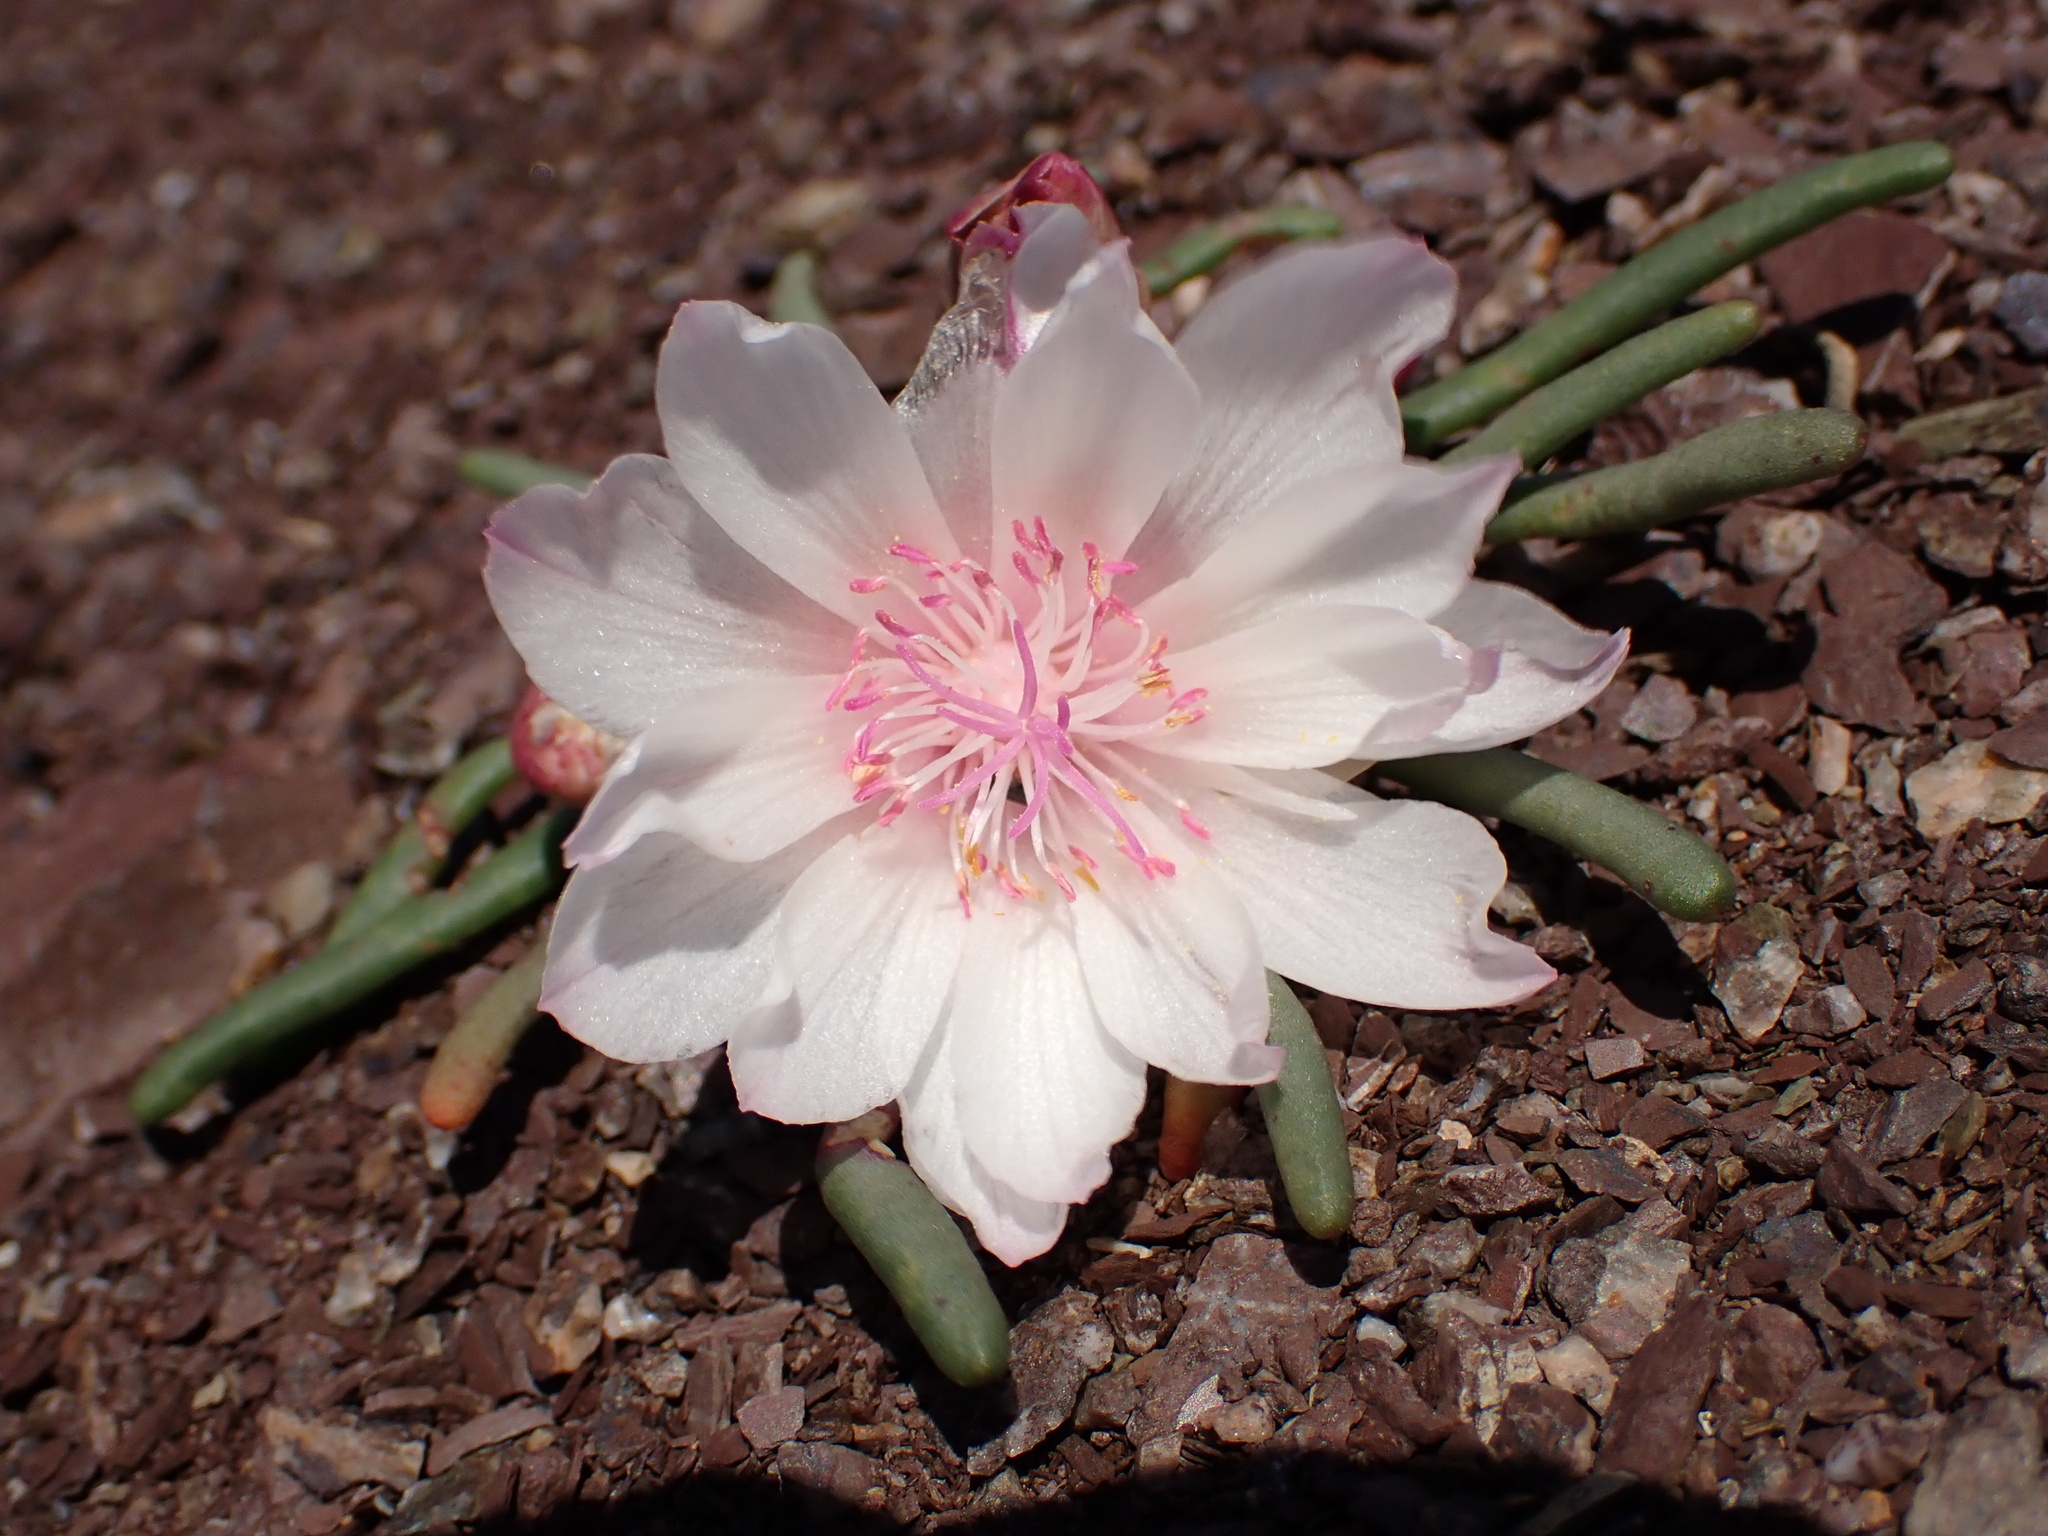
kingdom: Plantae
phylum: Tracheophyta
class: Magnoliopsida
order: Caryophyllales
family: Montiaceae
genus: Lewisia
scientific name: Lewisia rediviva
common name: Bitter-root
